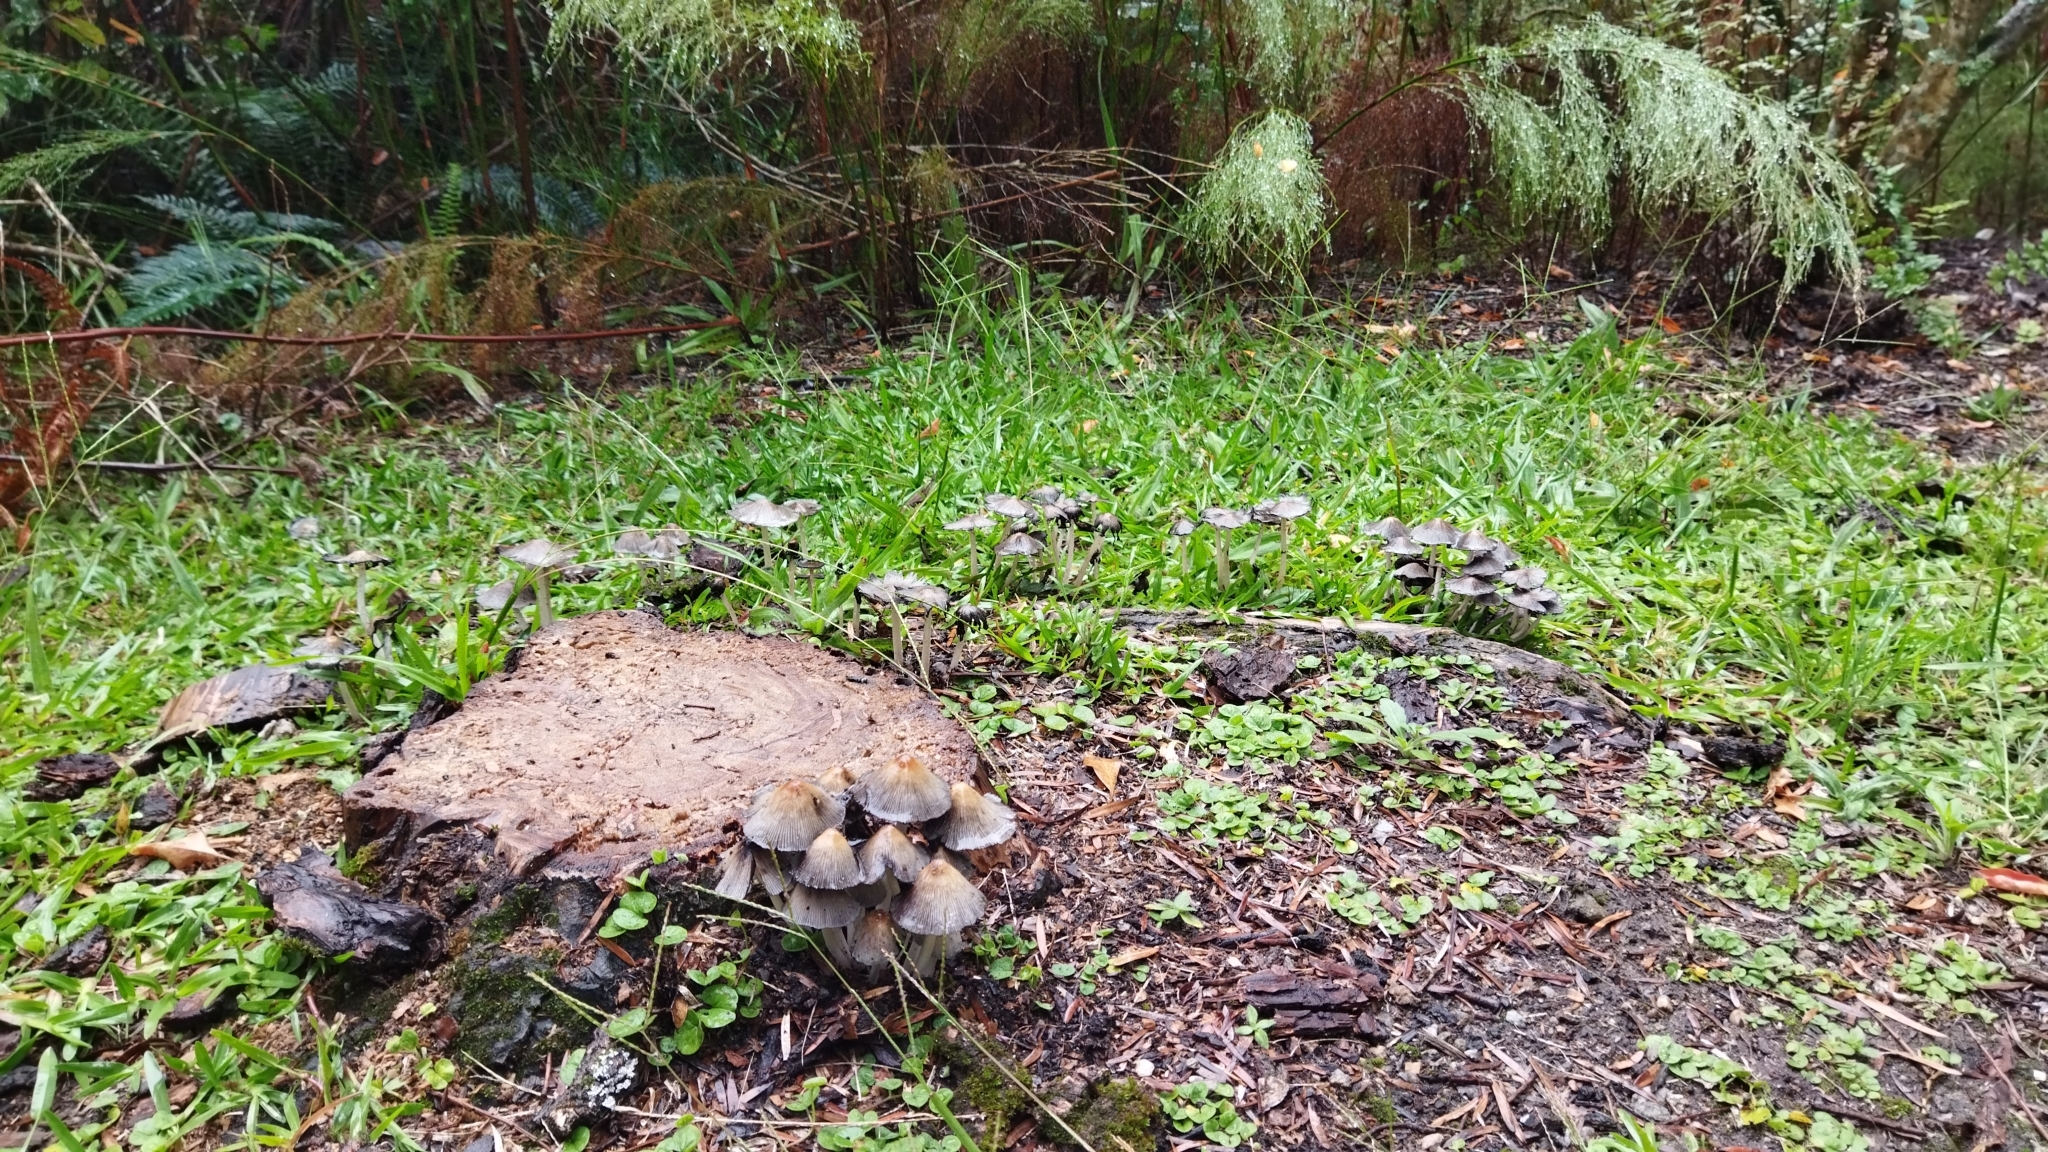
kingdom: Fungi
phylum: Basidiomycota
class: Agaricomycetes
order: Agaricales
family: Psathyrellaceae
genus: Coprinellus
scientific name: Coprinellus micaceus
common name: Glistening ink-cap
